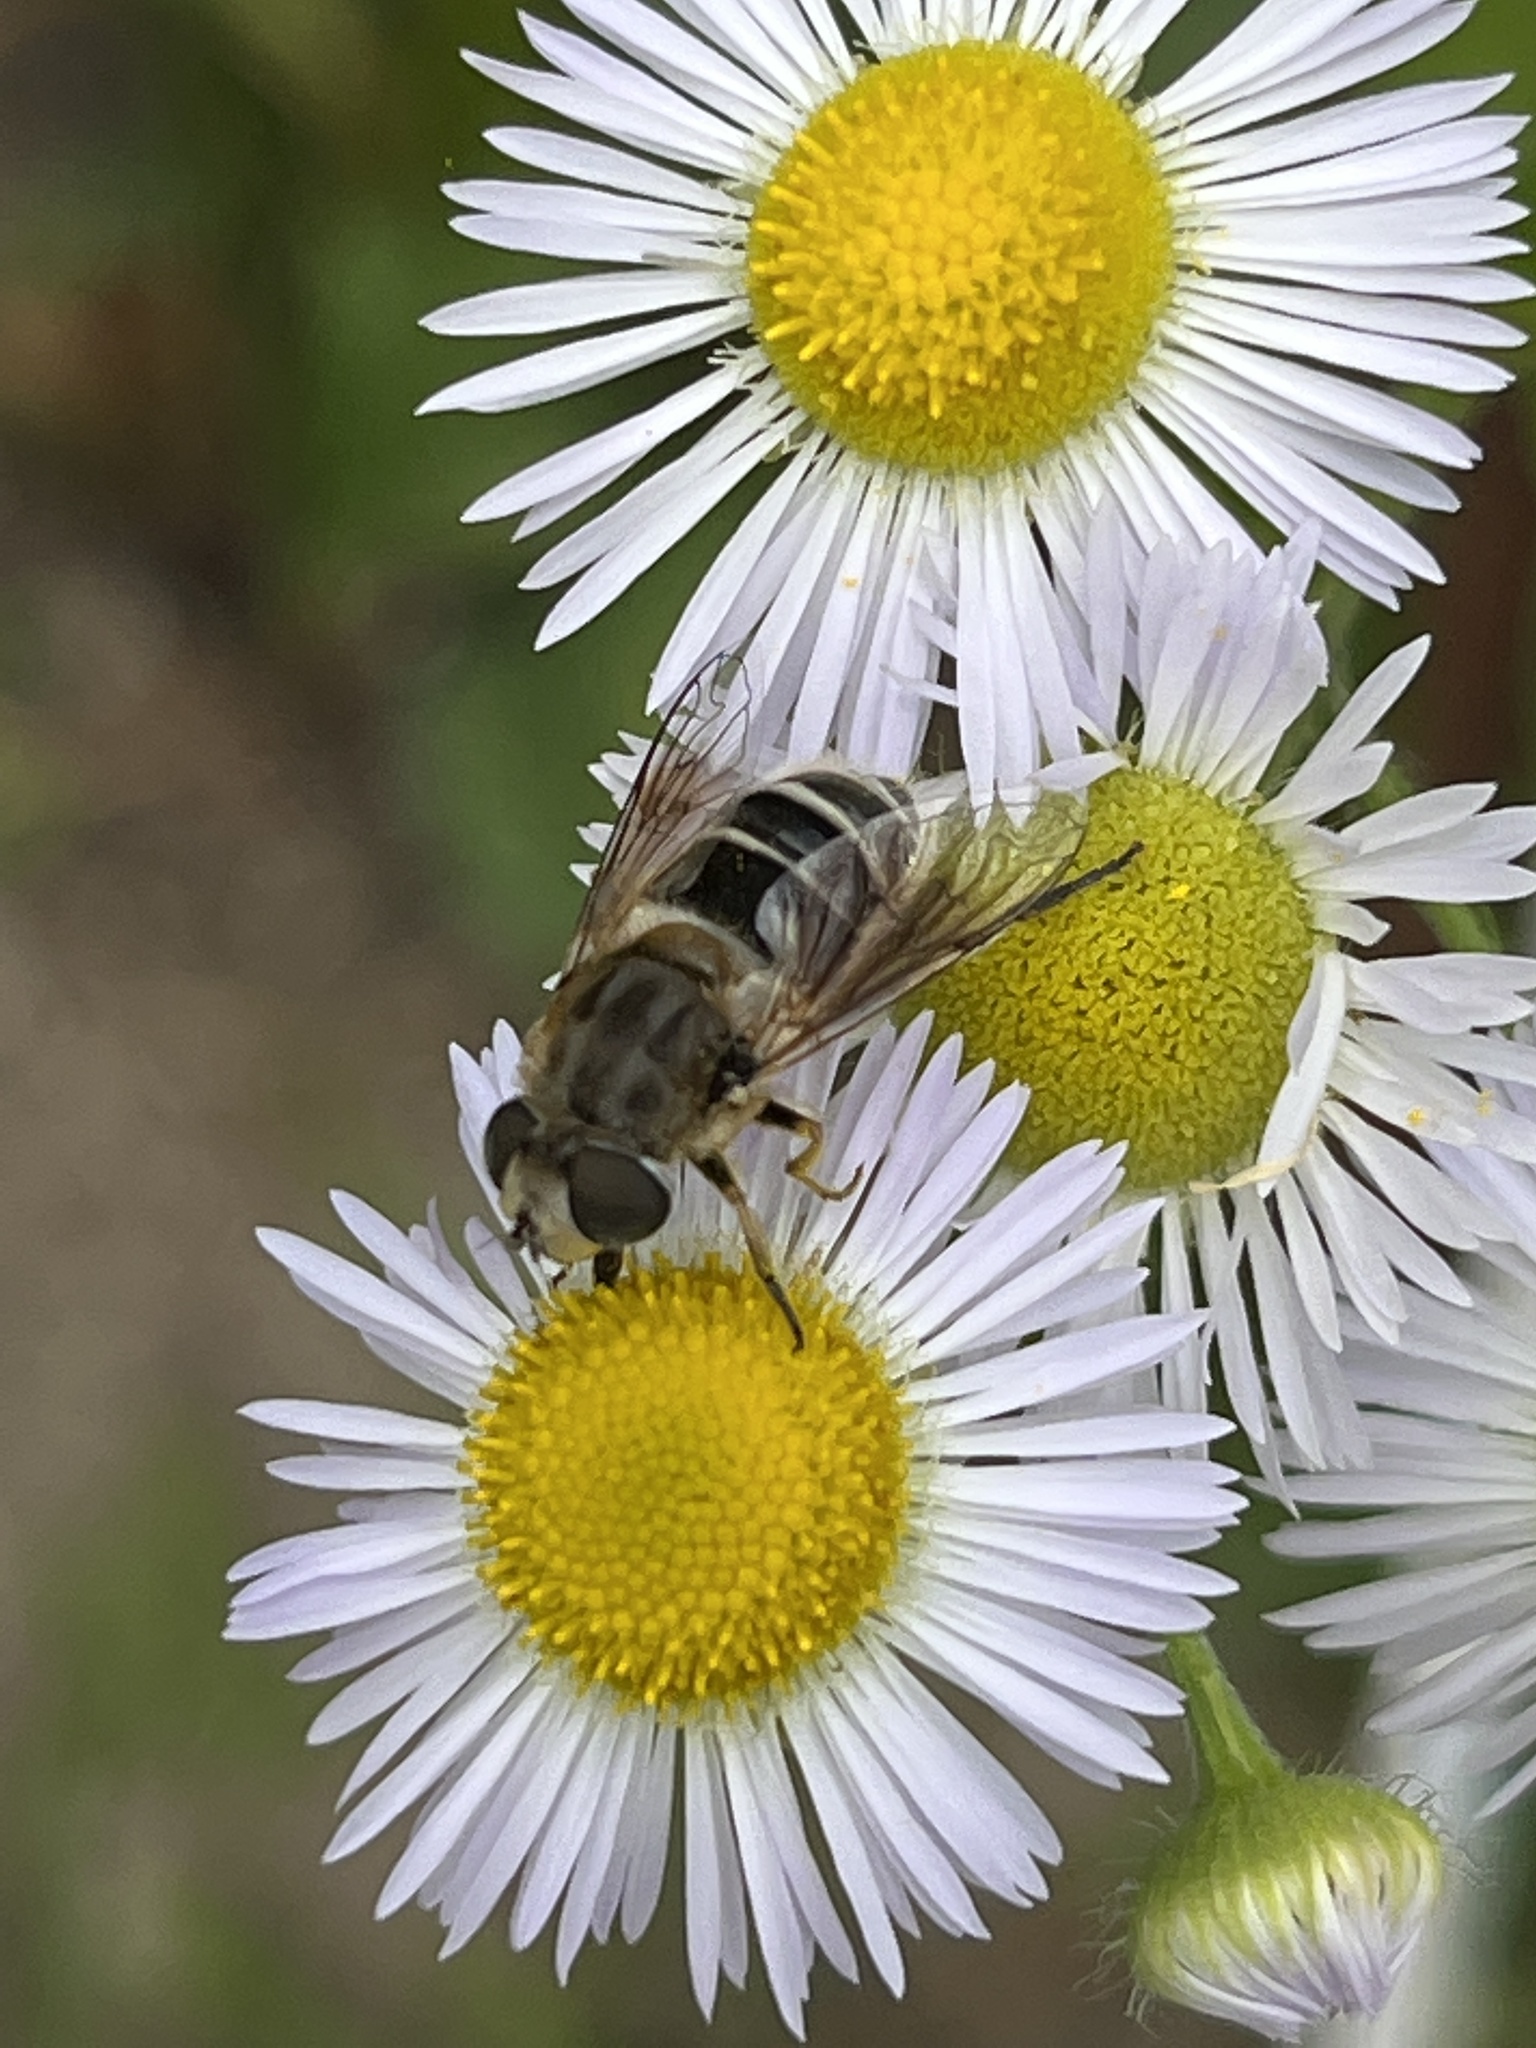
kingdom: Animalia
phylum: Arthropoda
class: Insecta
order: Diptera
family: Syrphidae
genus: Eristalis
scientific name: Eristalis arbustorum
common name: Hover fly
